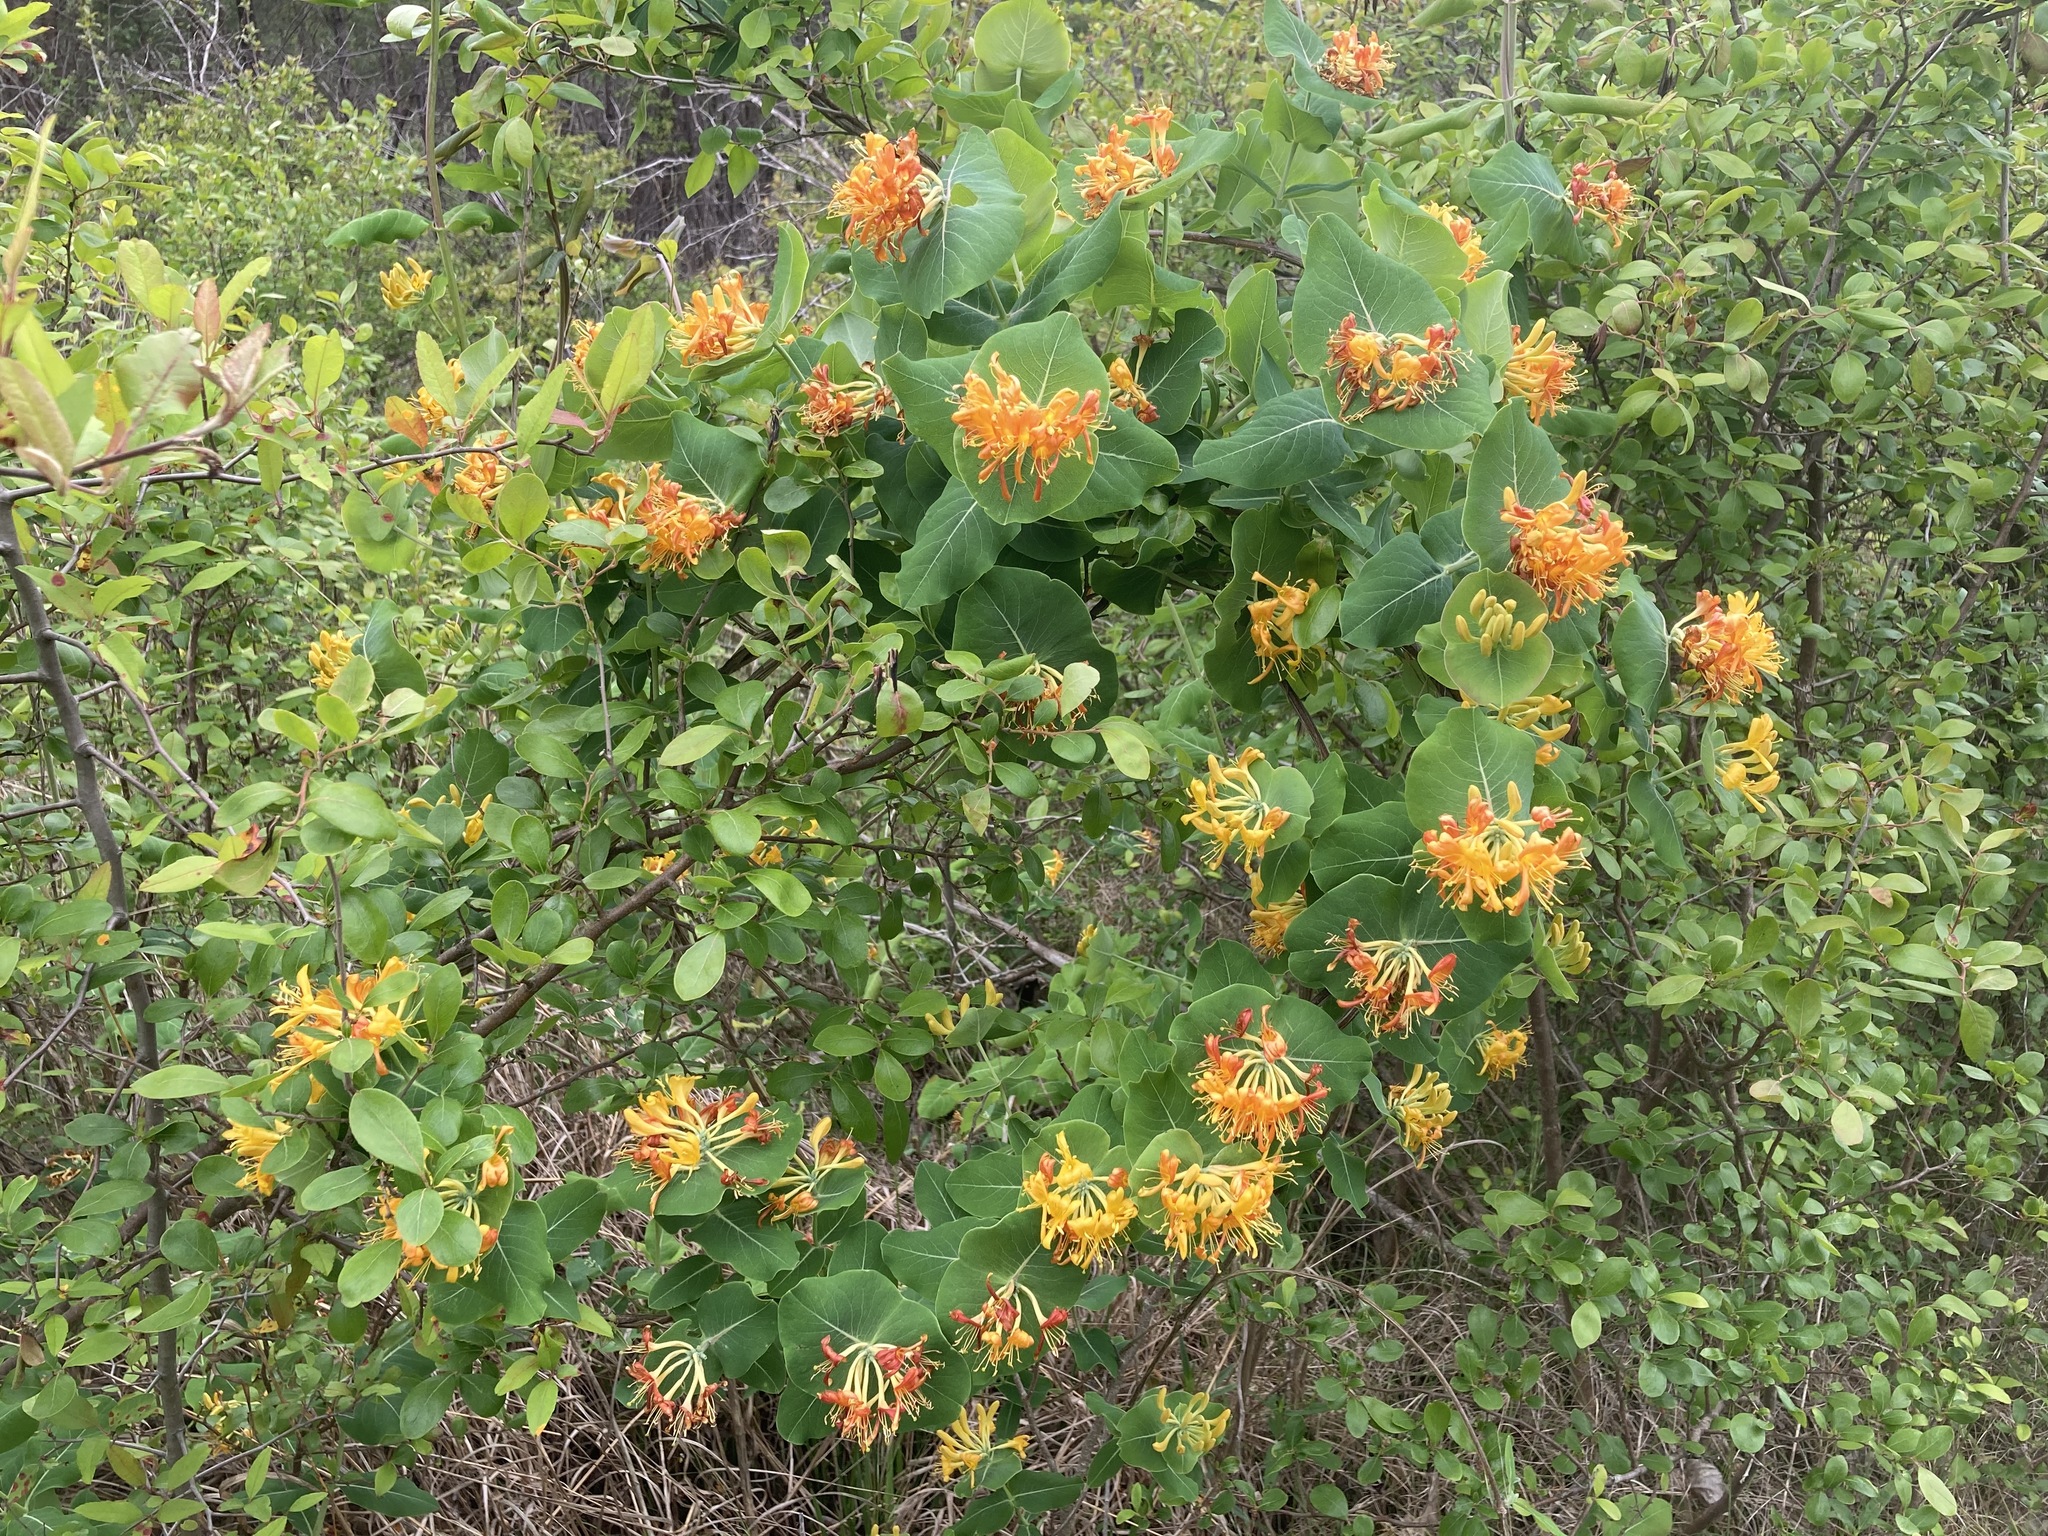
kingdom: Plantae
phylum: Tracheophyta
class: Magnoliopsida
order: Dipsacales
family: Caprifoliaceae
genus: Lonicera
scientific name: Lonicera flava
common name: Yellow honeysuckle
